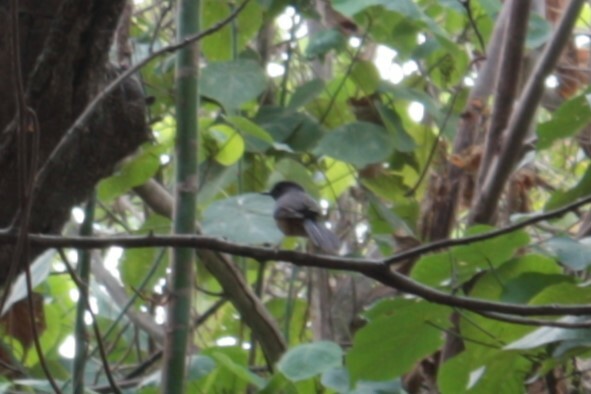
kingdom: Animalia
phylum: Chordata
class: Aves
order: Passeriformes
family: Muscicapidae
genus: Copsychus
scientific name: Copsychus malabaricus
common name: White-rumped shama
